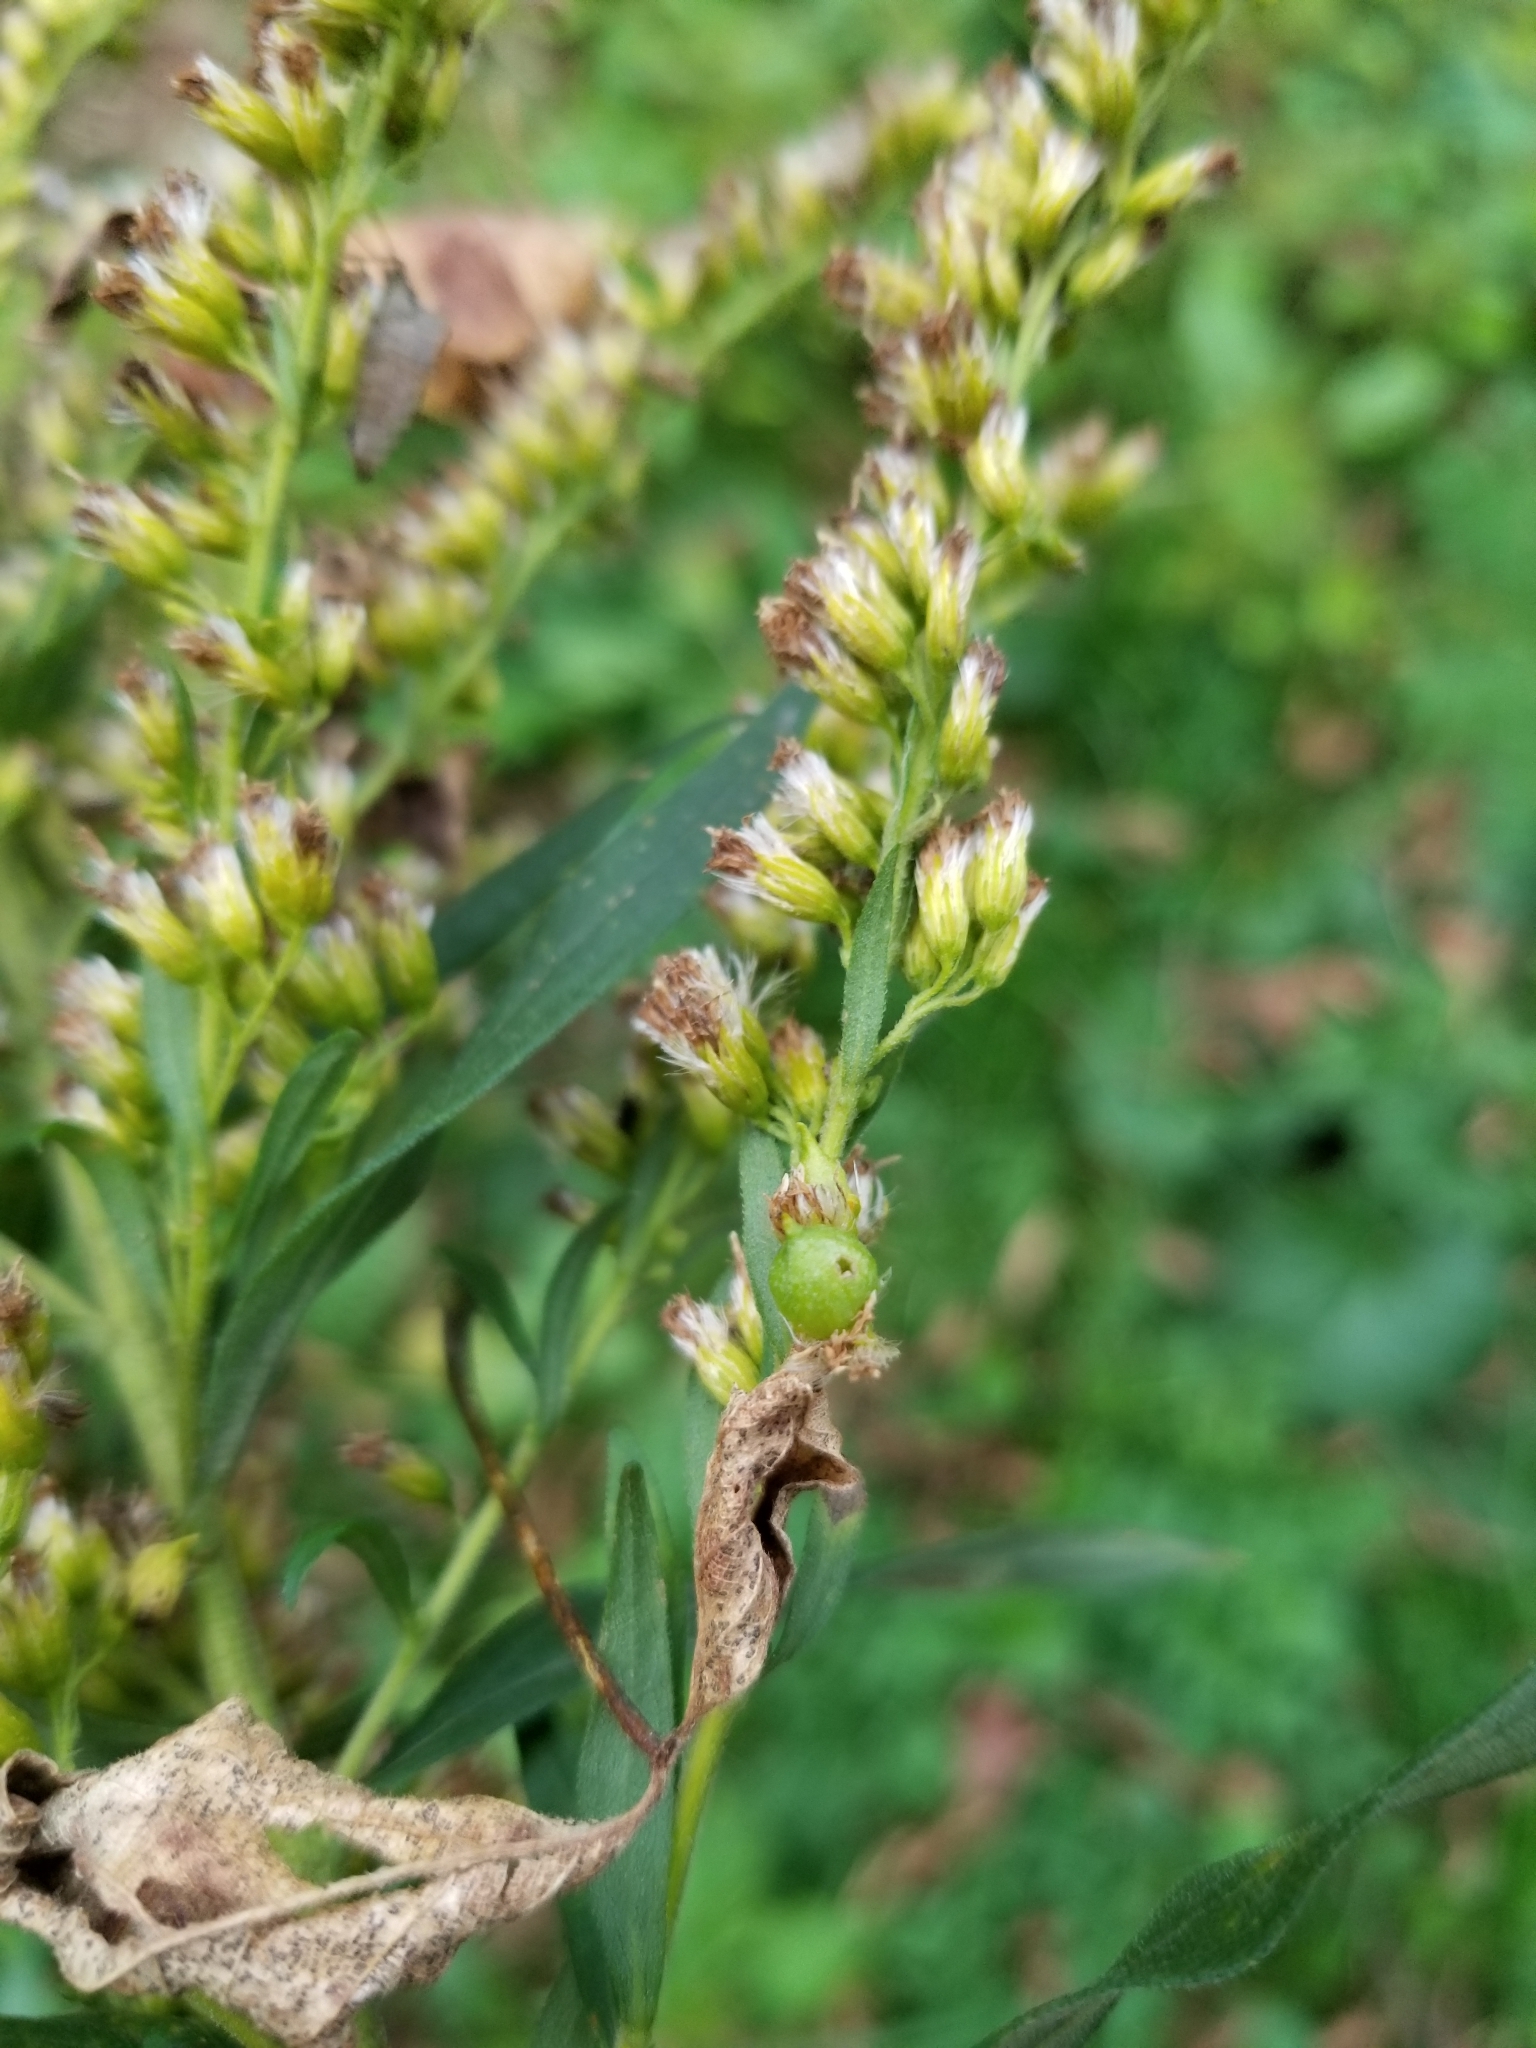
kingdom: Animalia
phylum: Arthropoda
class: Insecta
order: Diptera
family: Cecidomyiidae
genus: Schizomyia
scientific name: Schizomyia racemicola
